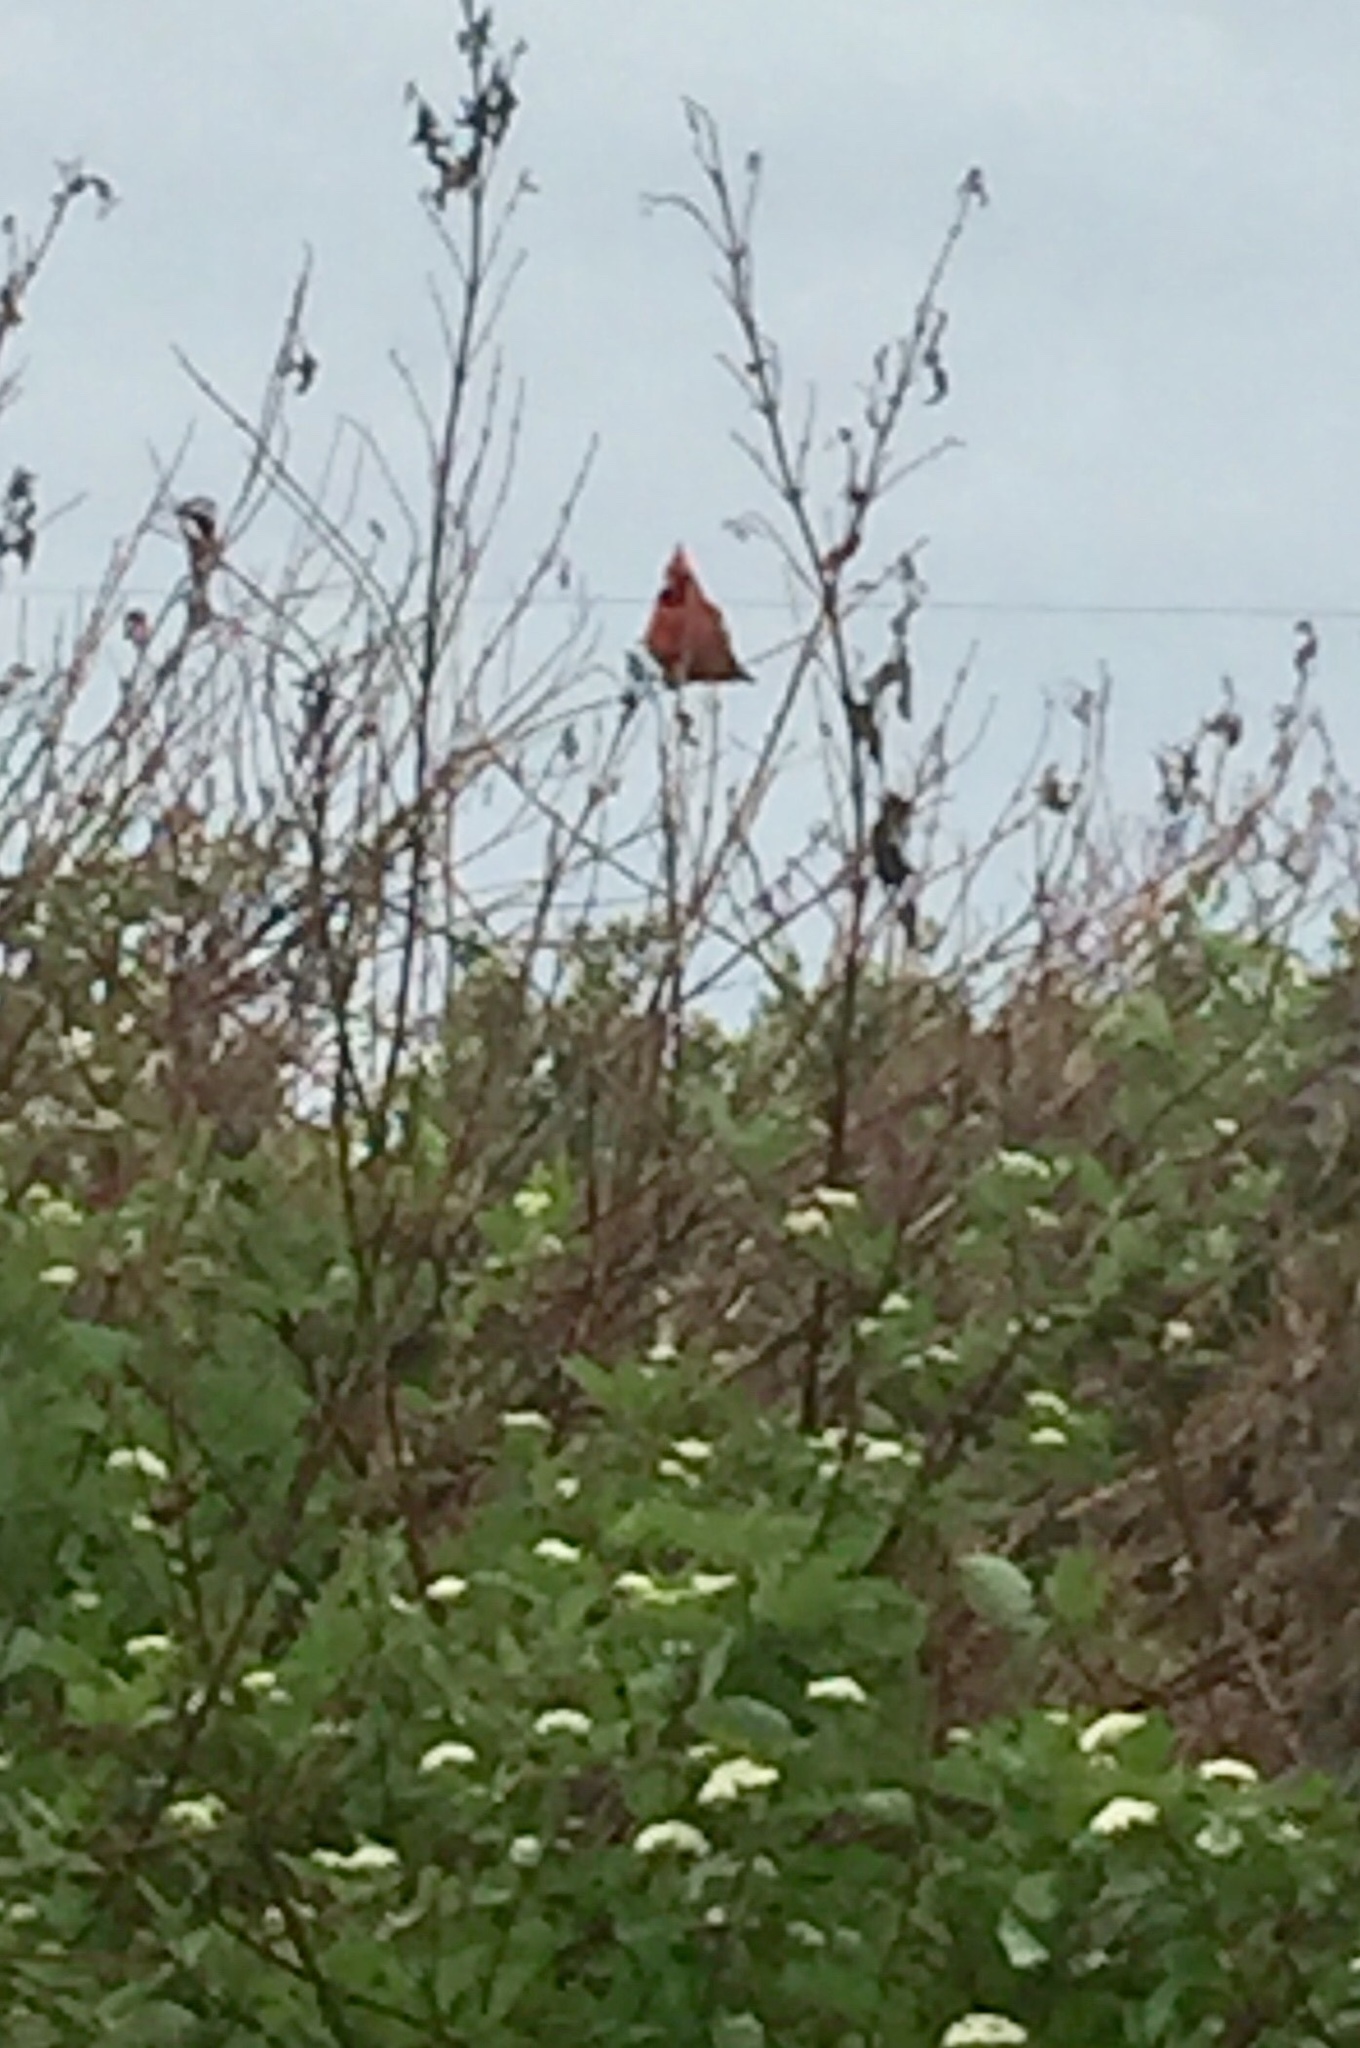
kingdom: Animalia
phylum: Chordata
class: Aves
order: Passeriformes
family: Cardinalidae
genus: Cardinalis
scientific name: Cardinalis cardinalis
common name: Northern cardinal
